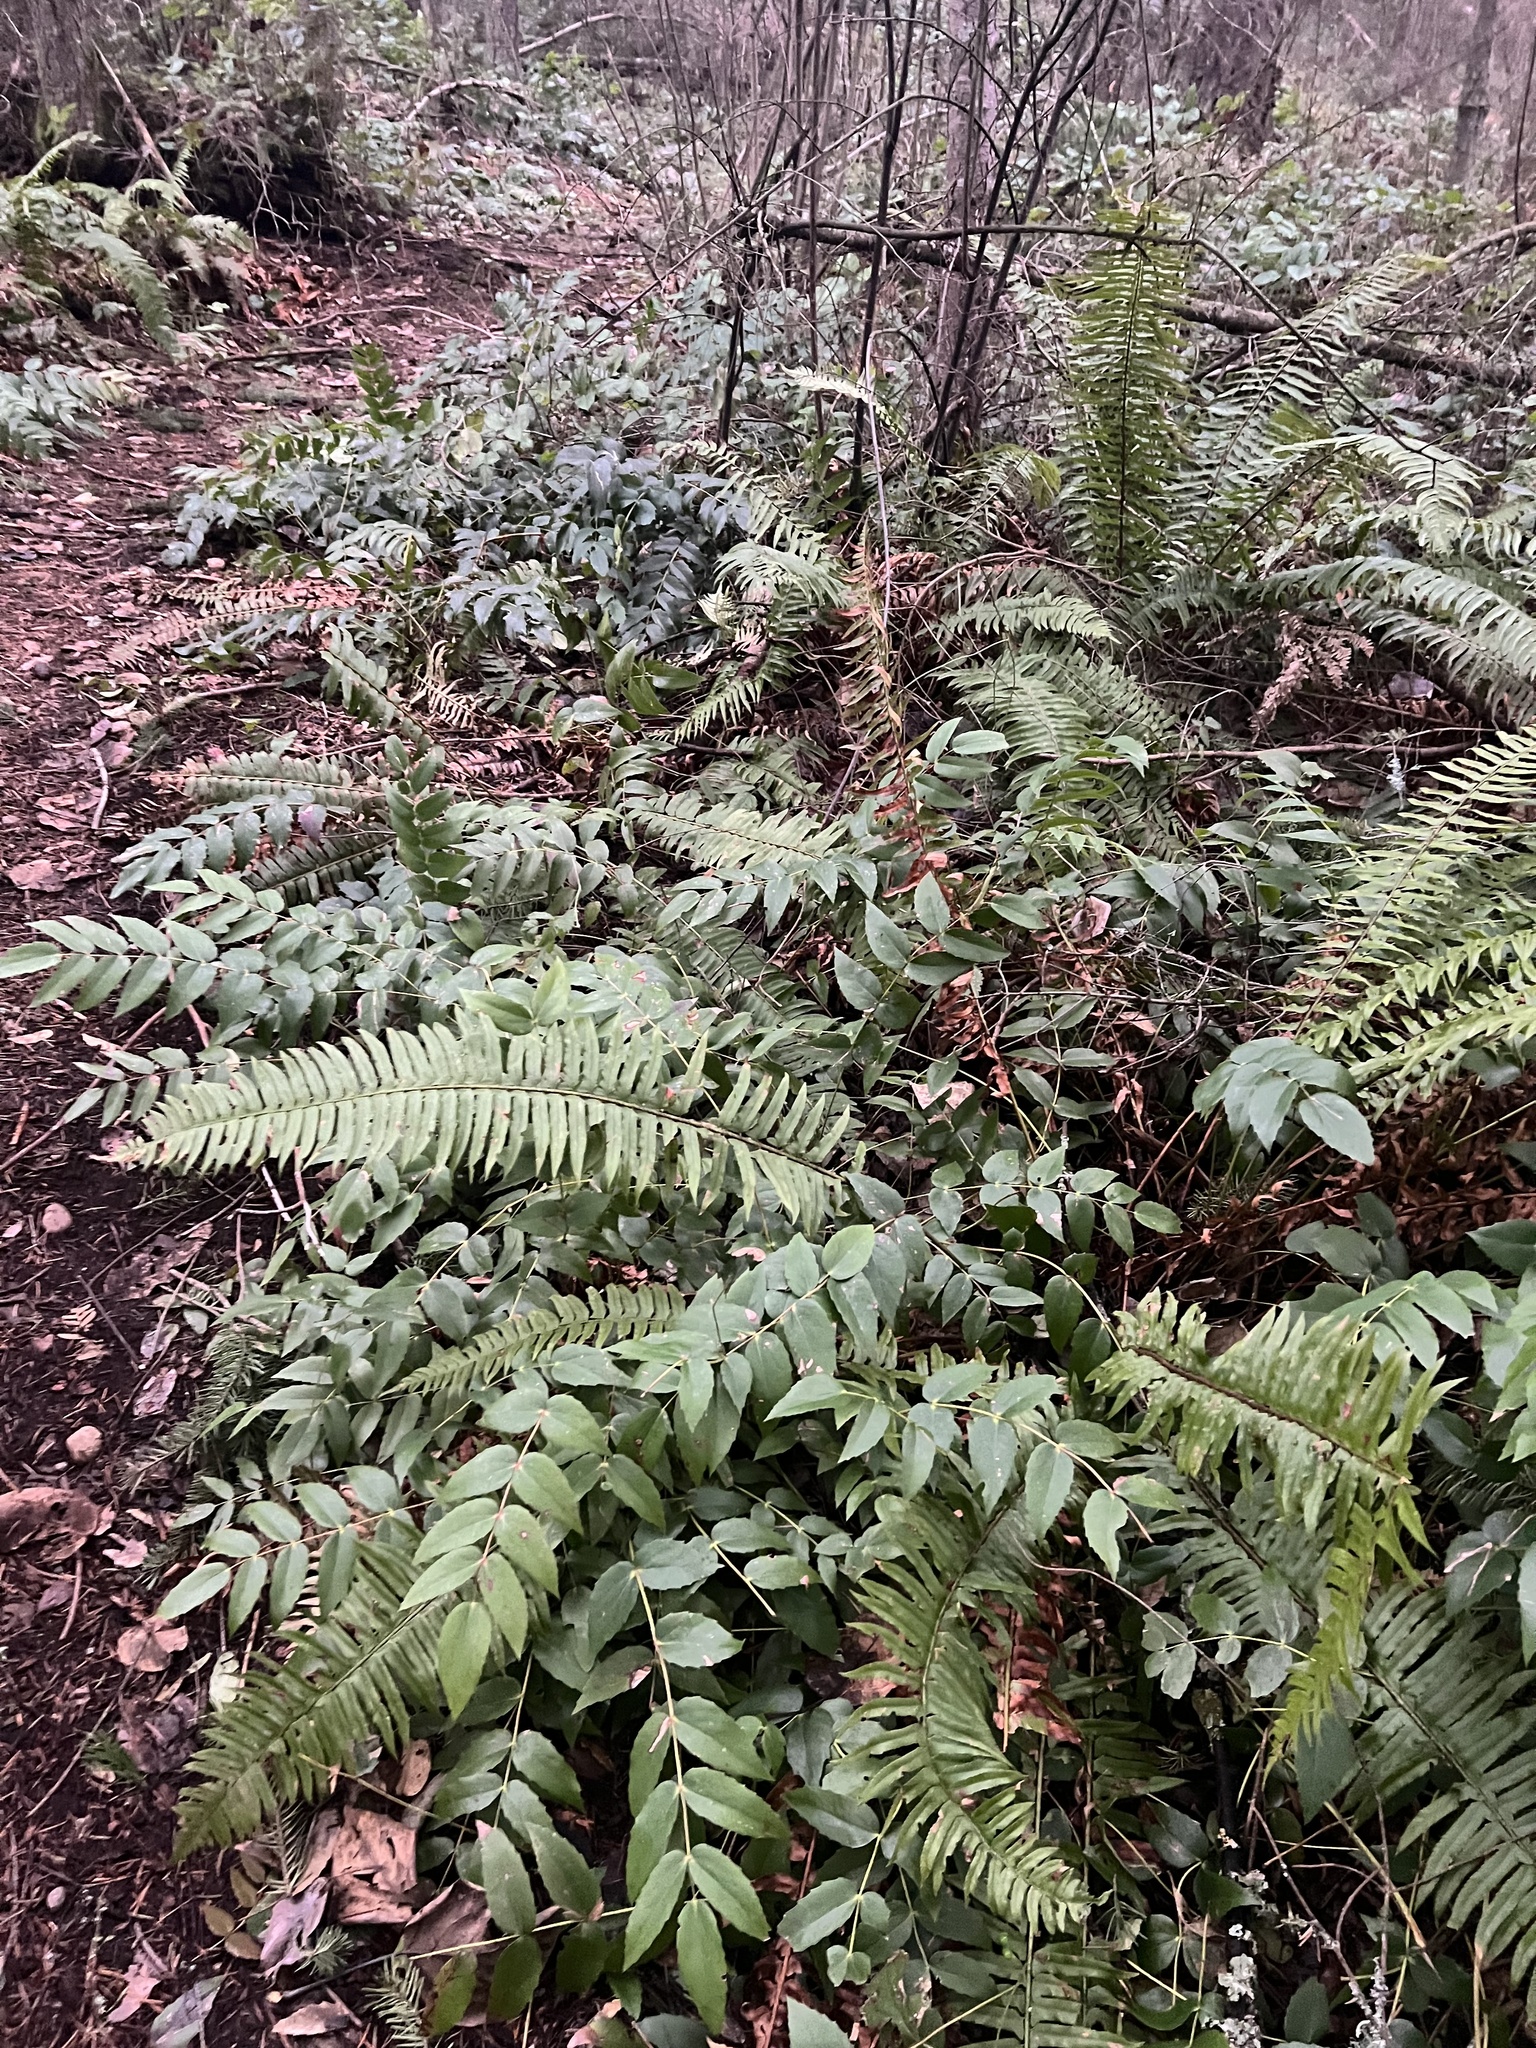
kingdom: Plantae
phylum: Tracheophyta
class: Polypodiopsida
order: Polypodiales
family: Dryopteridaceae
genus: Polystichum
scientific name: Polystichum munitum
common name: Western sword-fern
